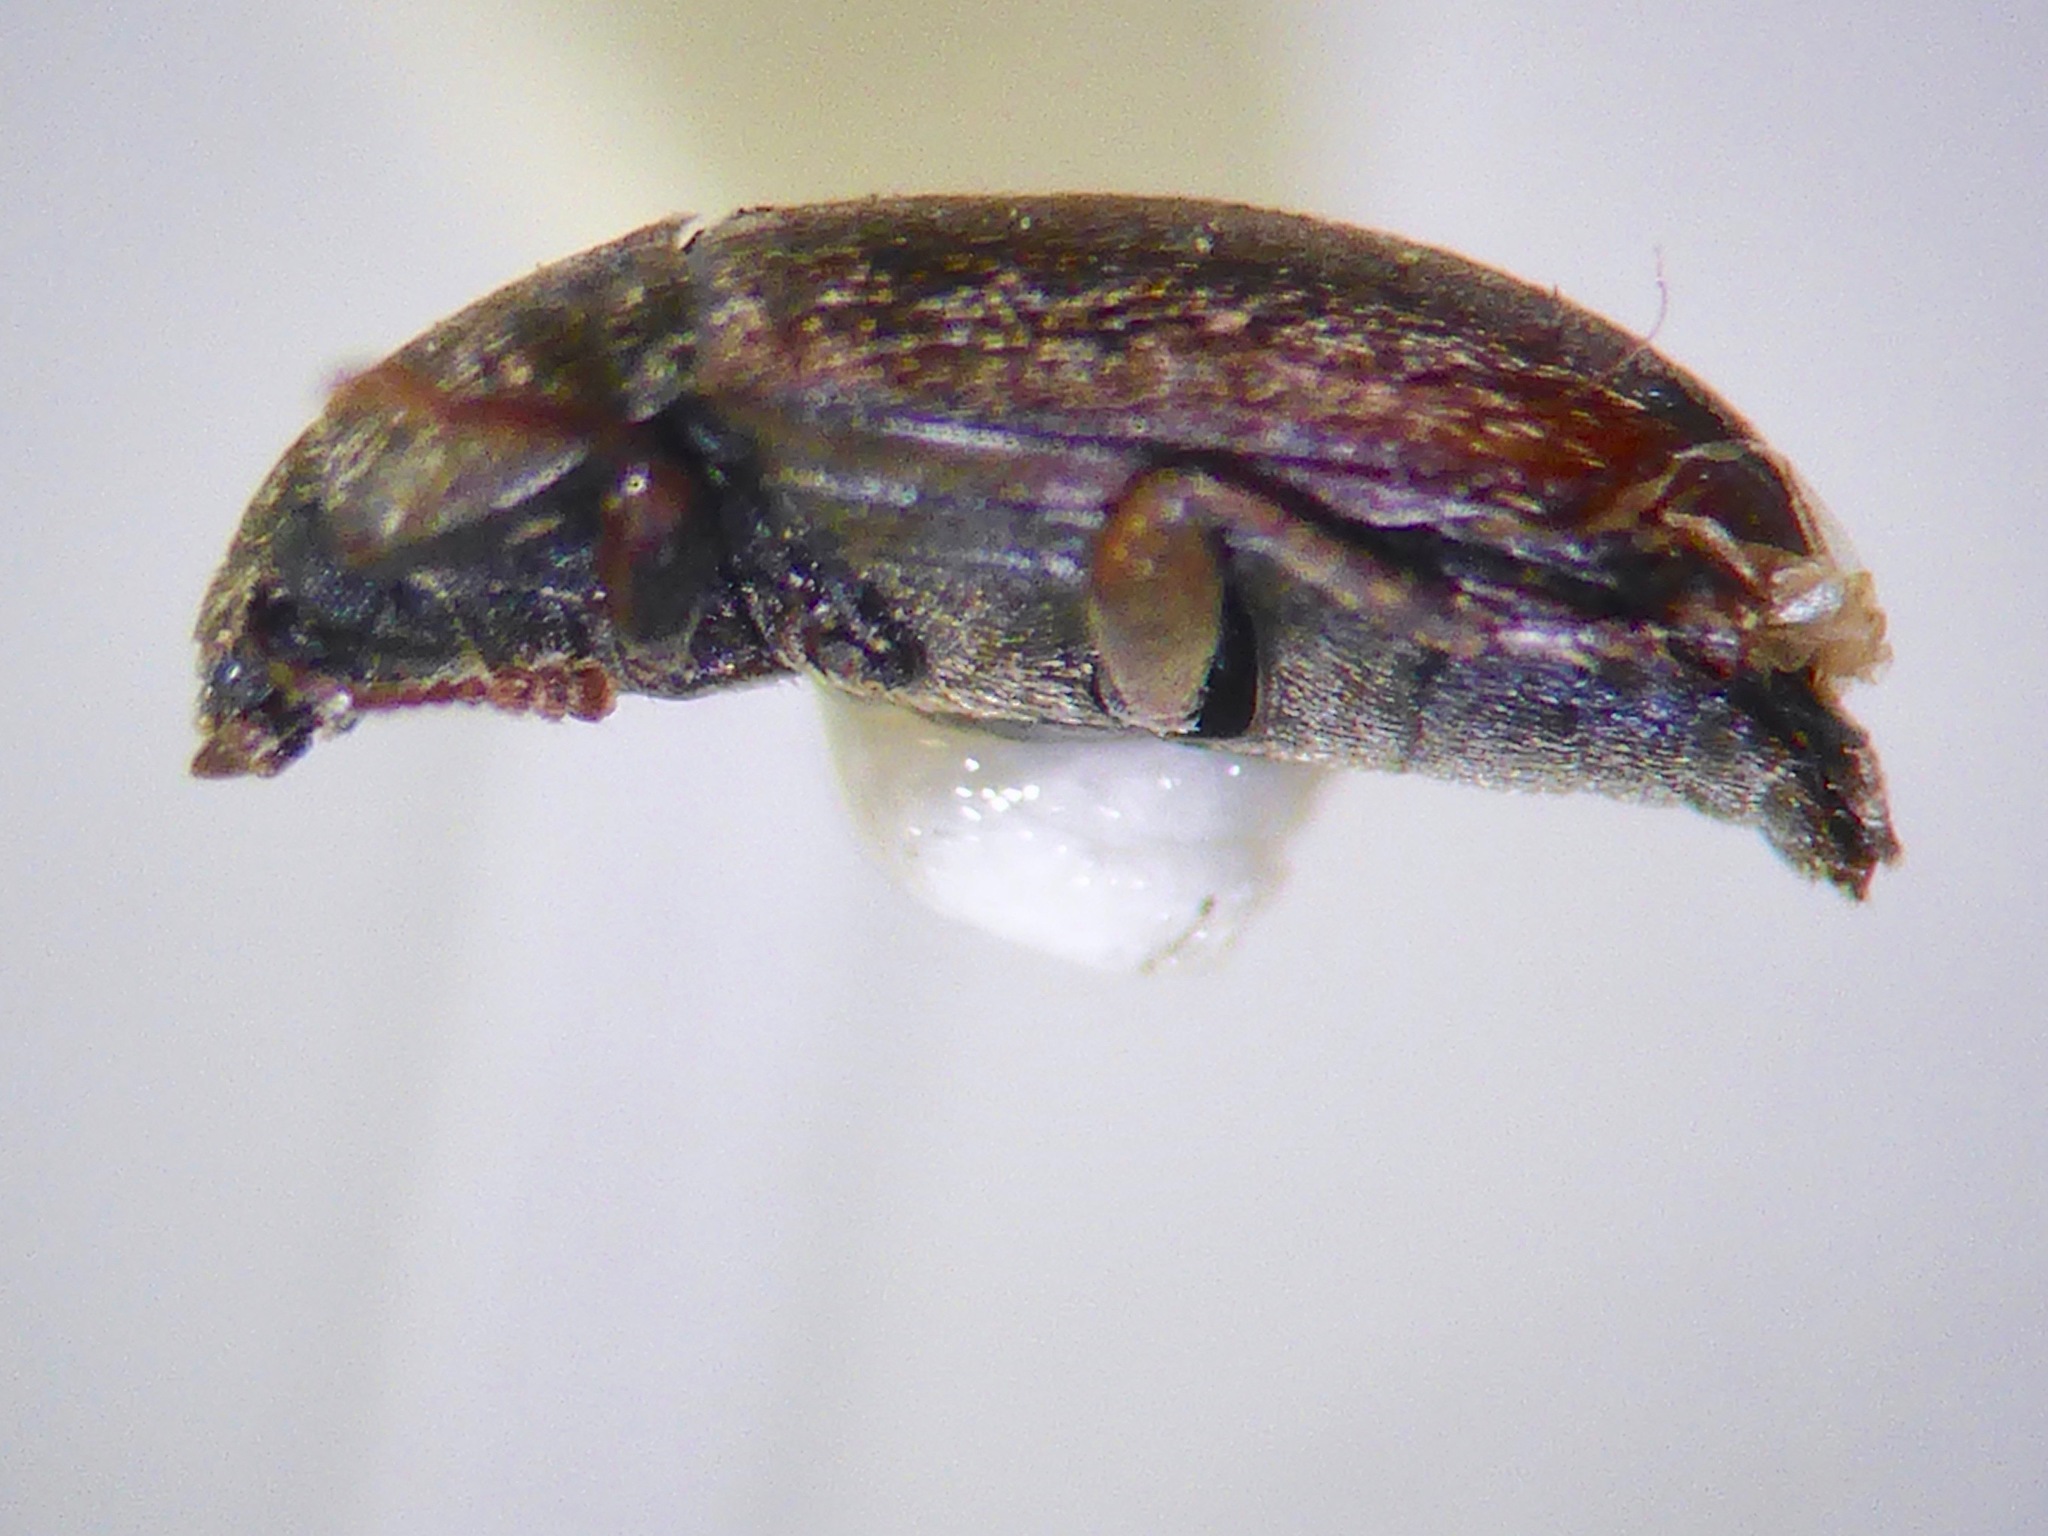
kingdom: Animalia
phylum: Arthropoda
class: Insecta
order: Coleoptera
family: Archeocrypticidae
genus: Enneboeus
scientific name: Enneboeus
